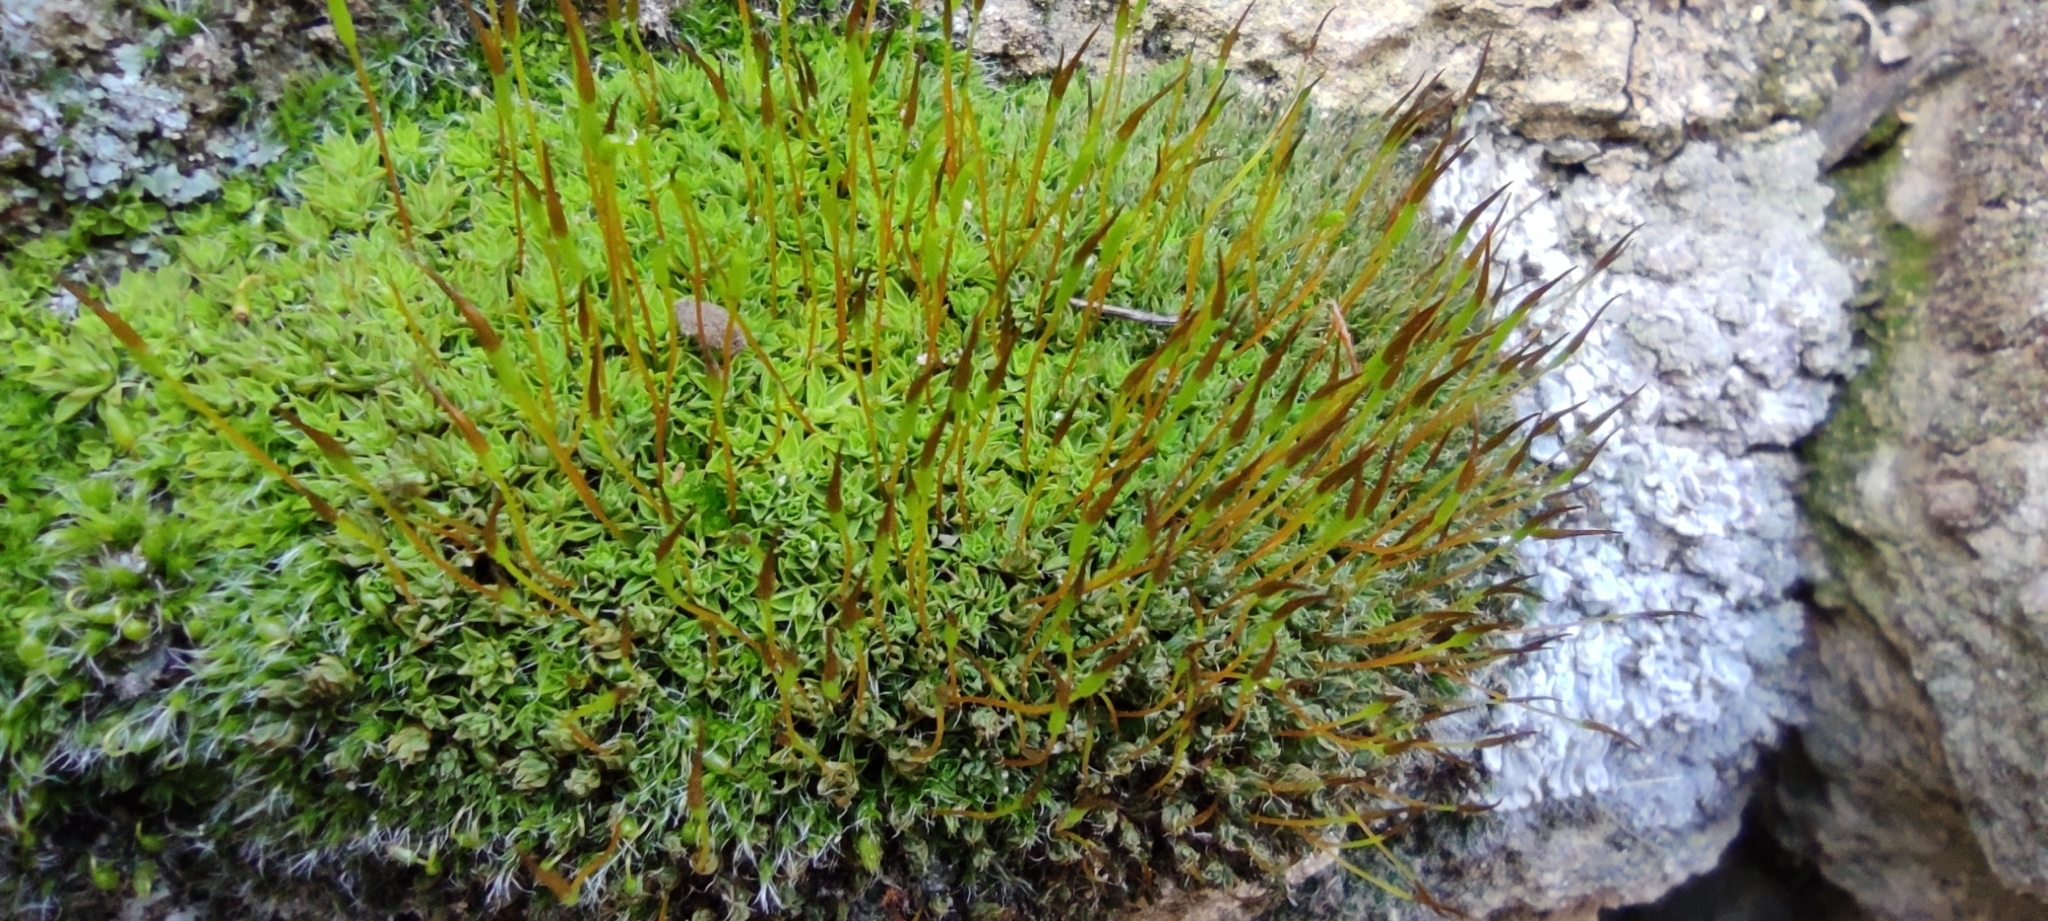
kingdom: Plantae
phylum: Bryophyta
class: Bryopsida
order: Pottiales
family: Pottiaceae
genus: Tortula
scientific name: Tortula muralis
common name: Wall screw-moss
